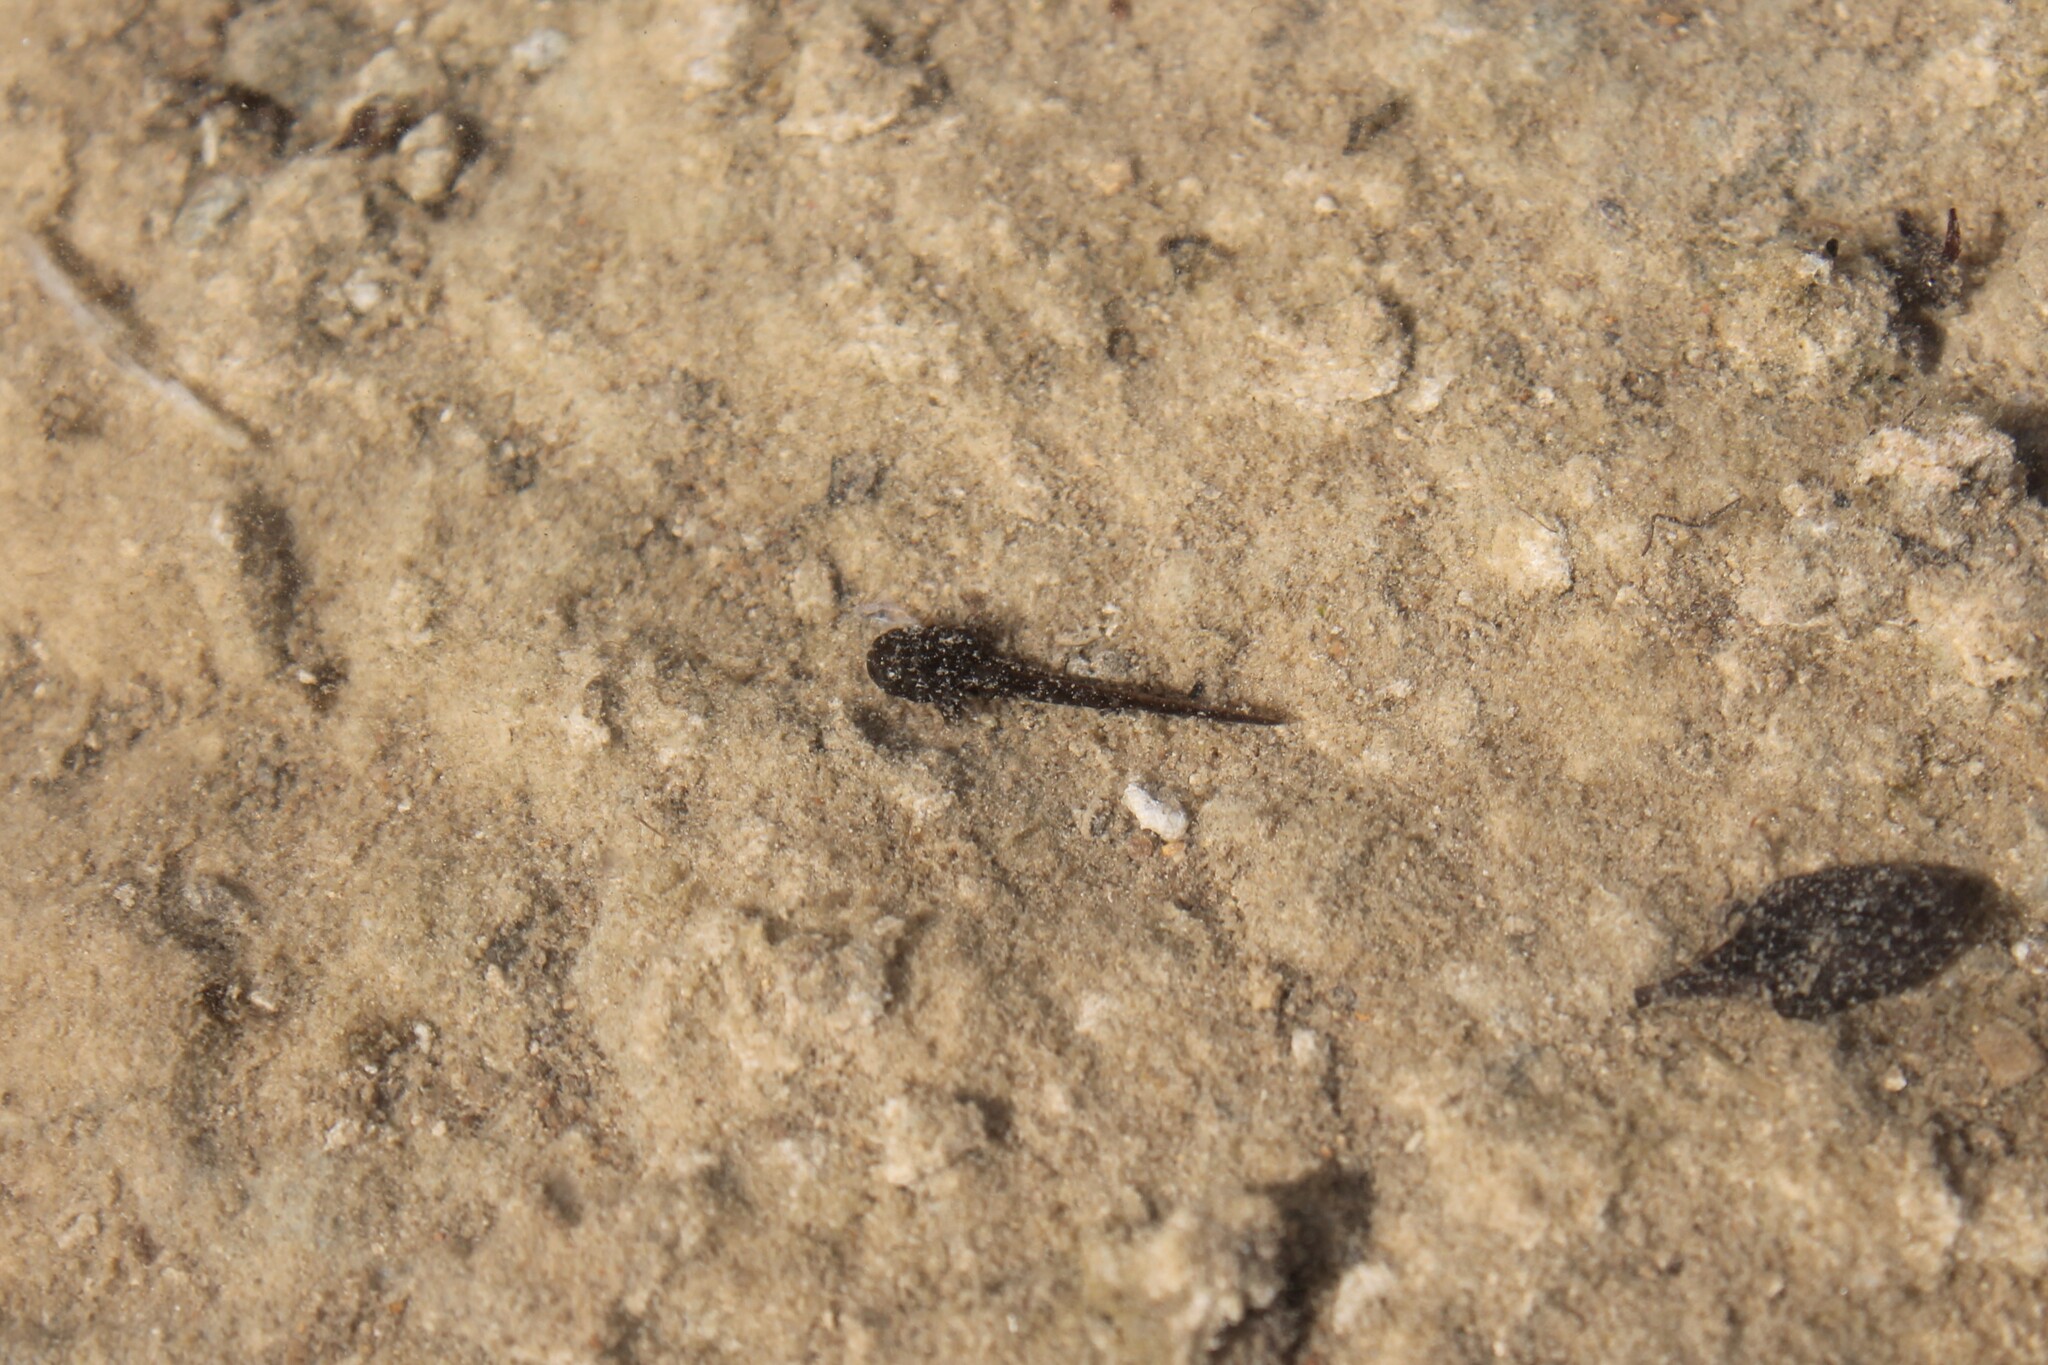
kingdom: Animalia
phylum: Chordata
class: Amphibia
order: Caudata
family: Ambystomatidae
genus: Ambystoma
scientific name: Ambystoma barbouri
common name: Streamside salamander
